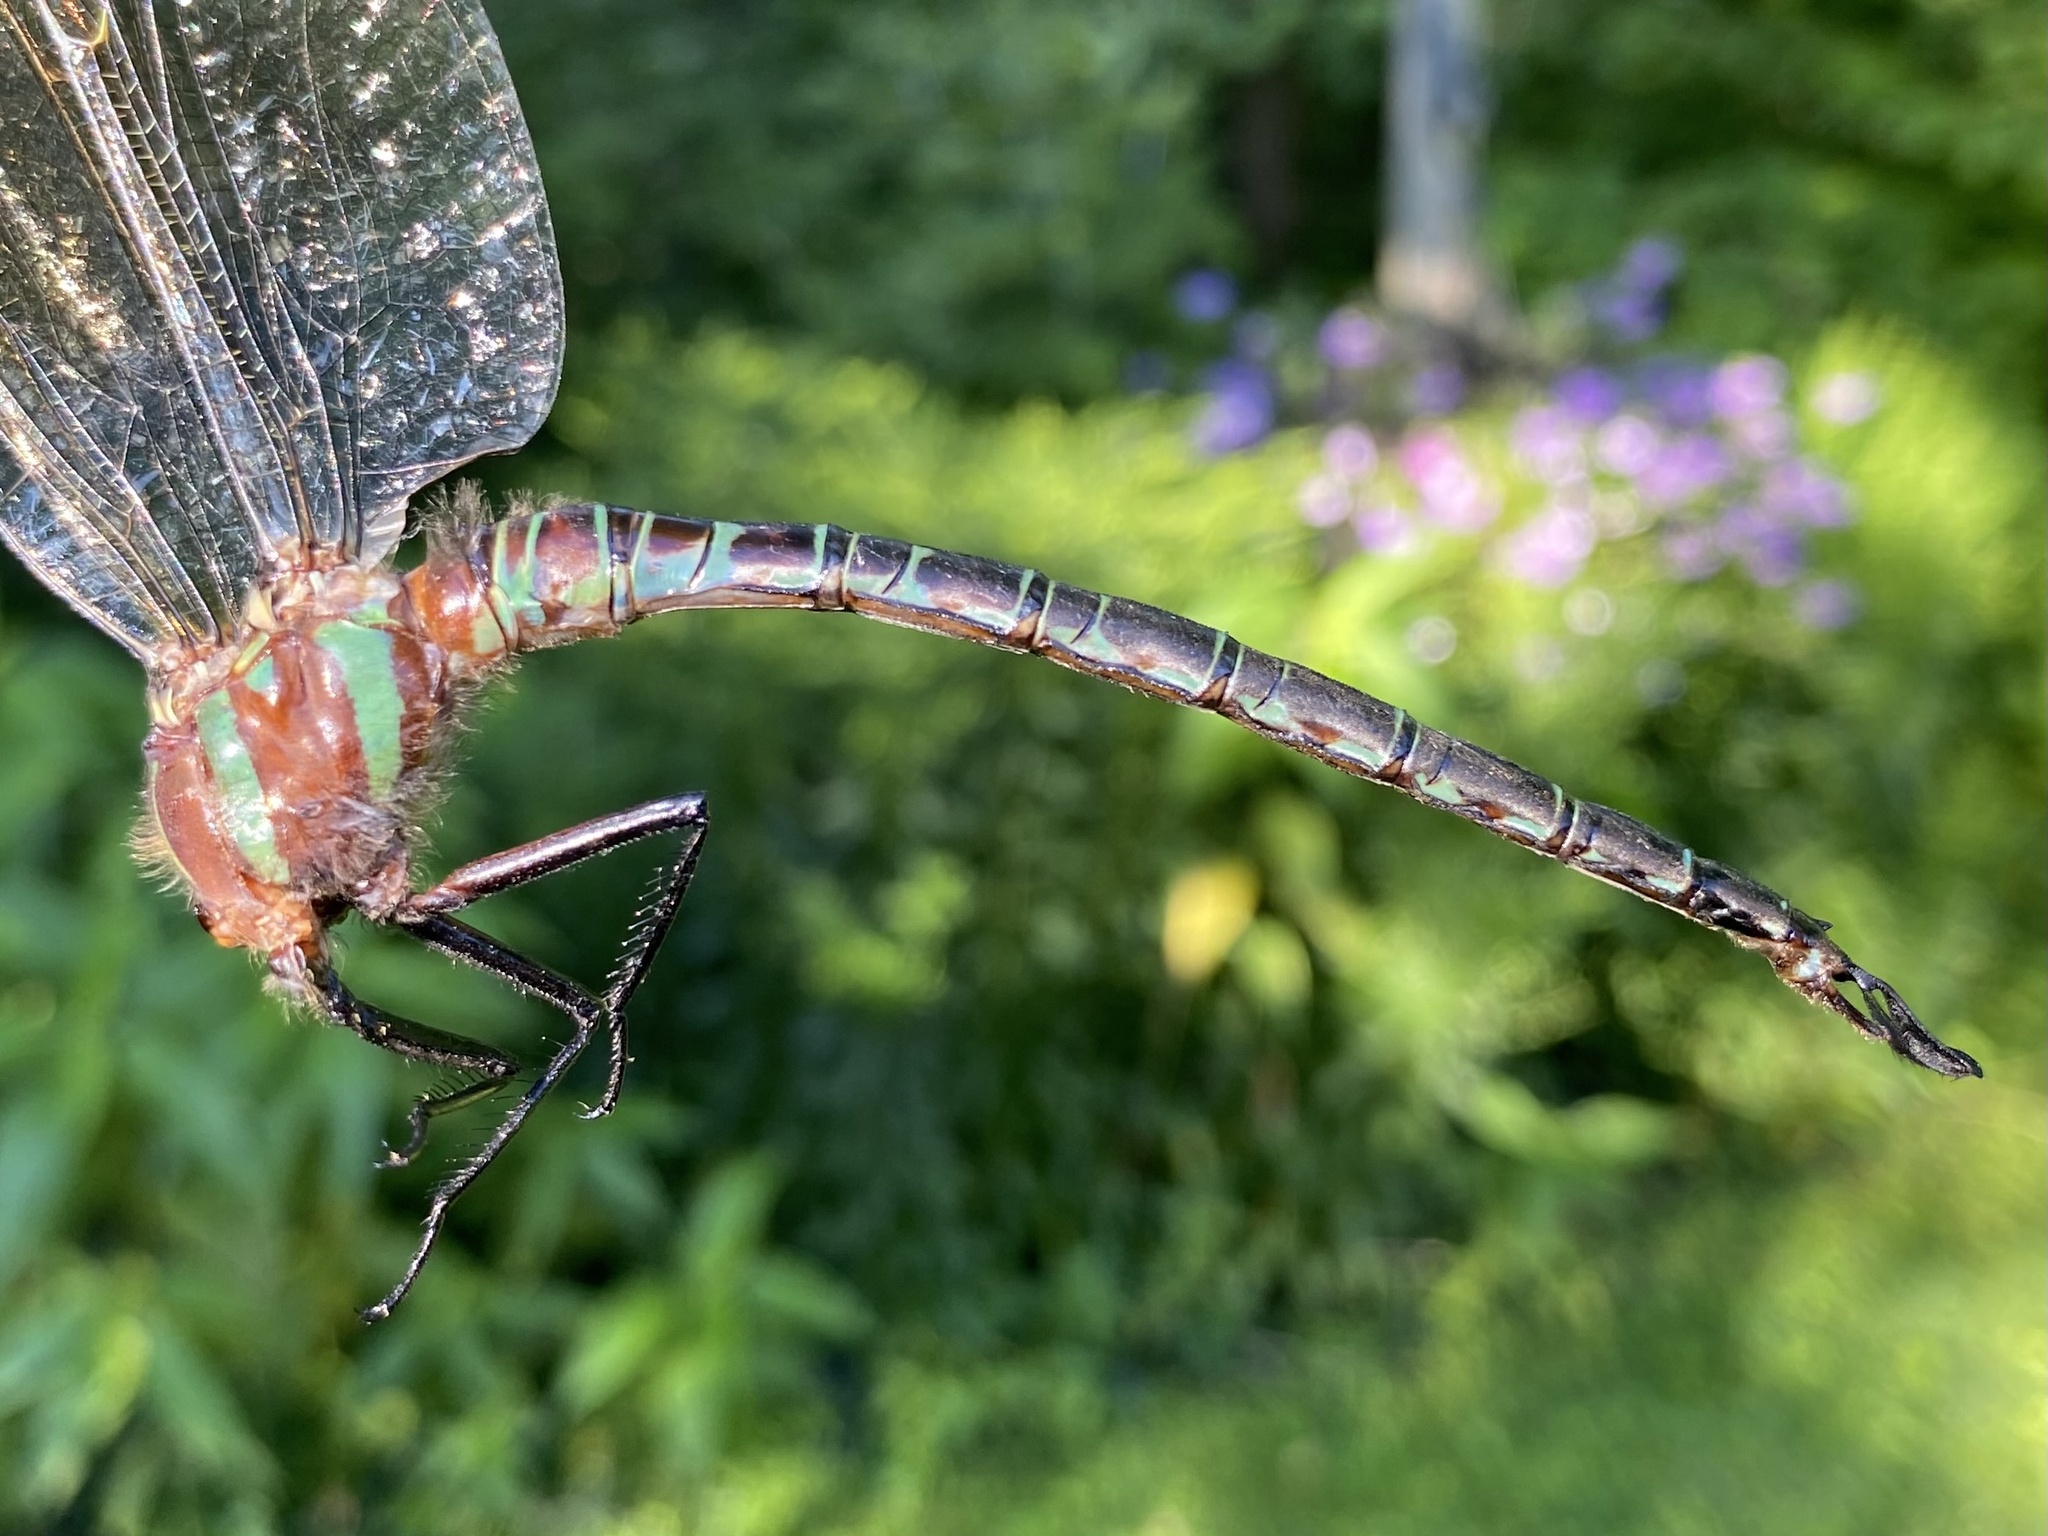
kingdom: Animalia
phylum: Arthropoda
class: Insecta
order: Odonata
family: Aeshnidae
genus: Epiaeschna
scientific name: Epiaeschna heros
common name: Swamp darner
